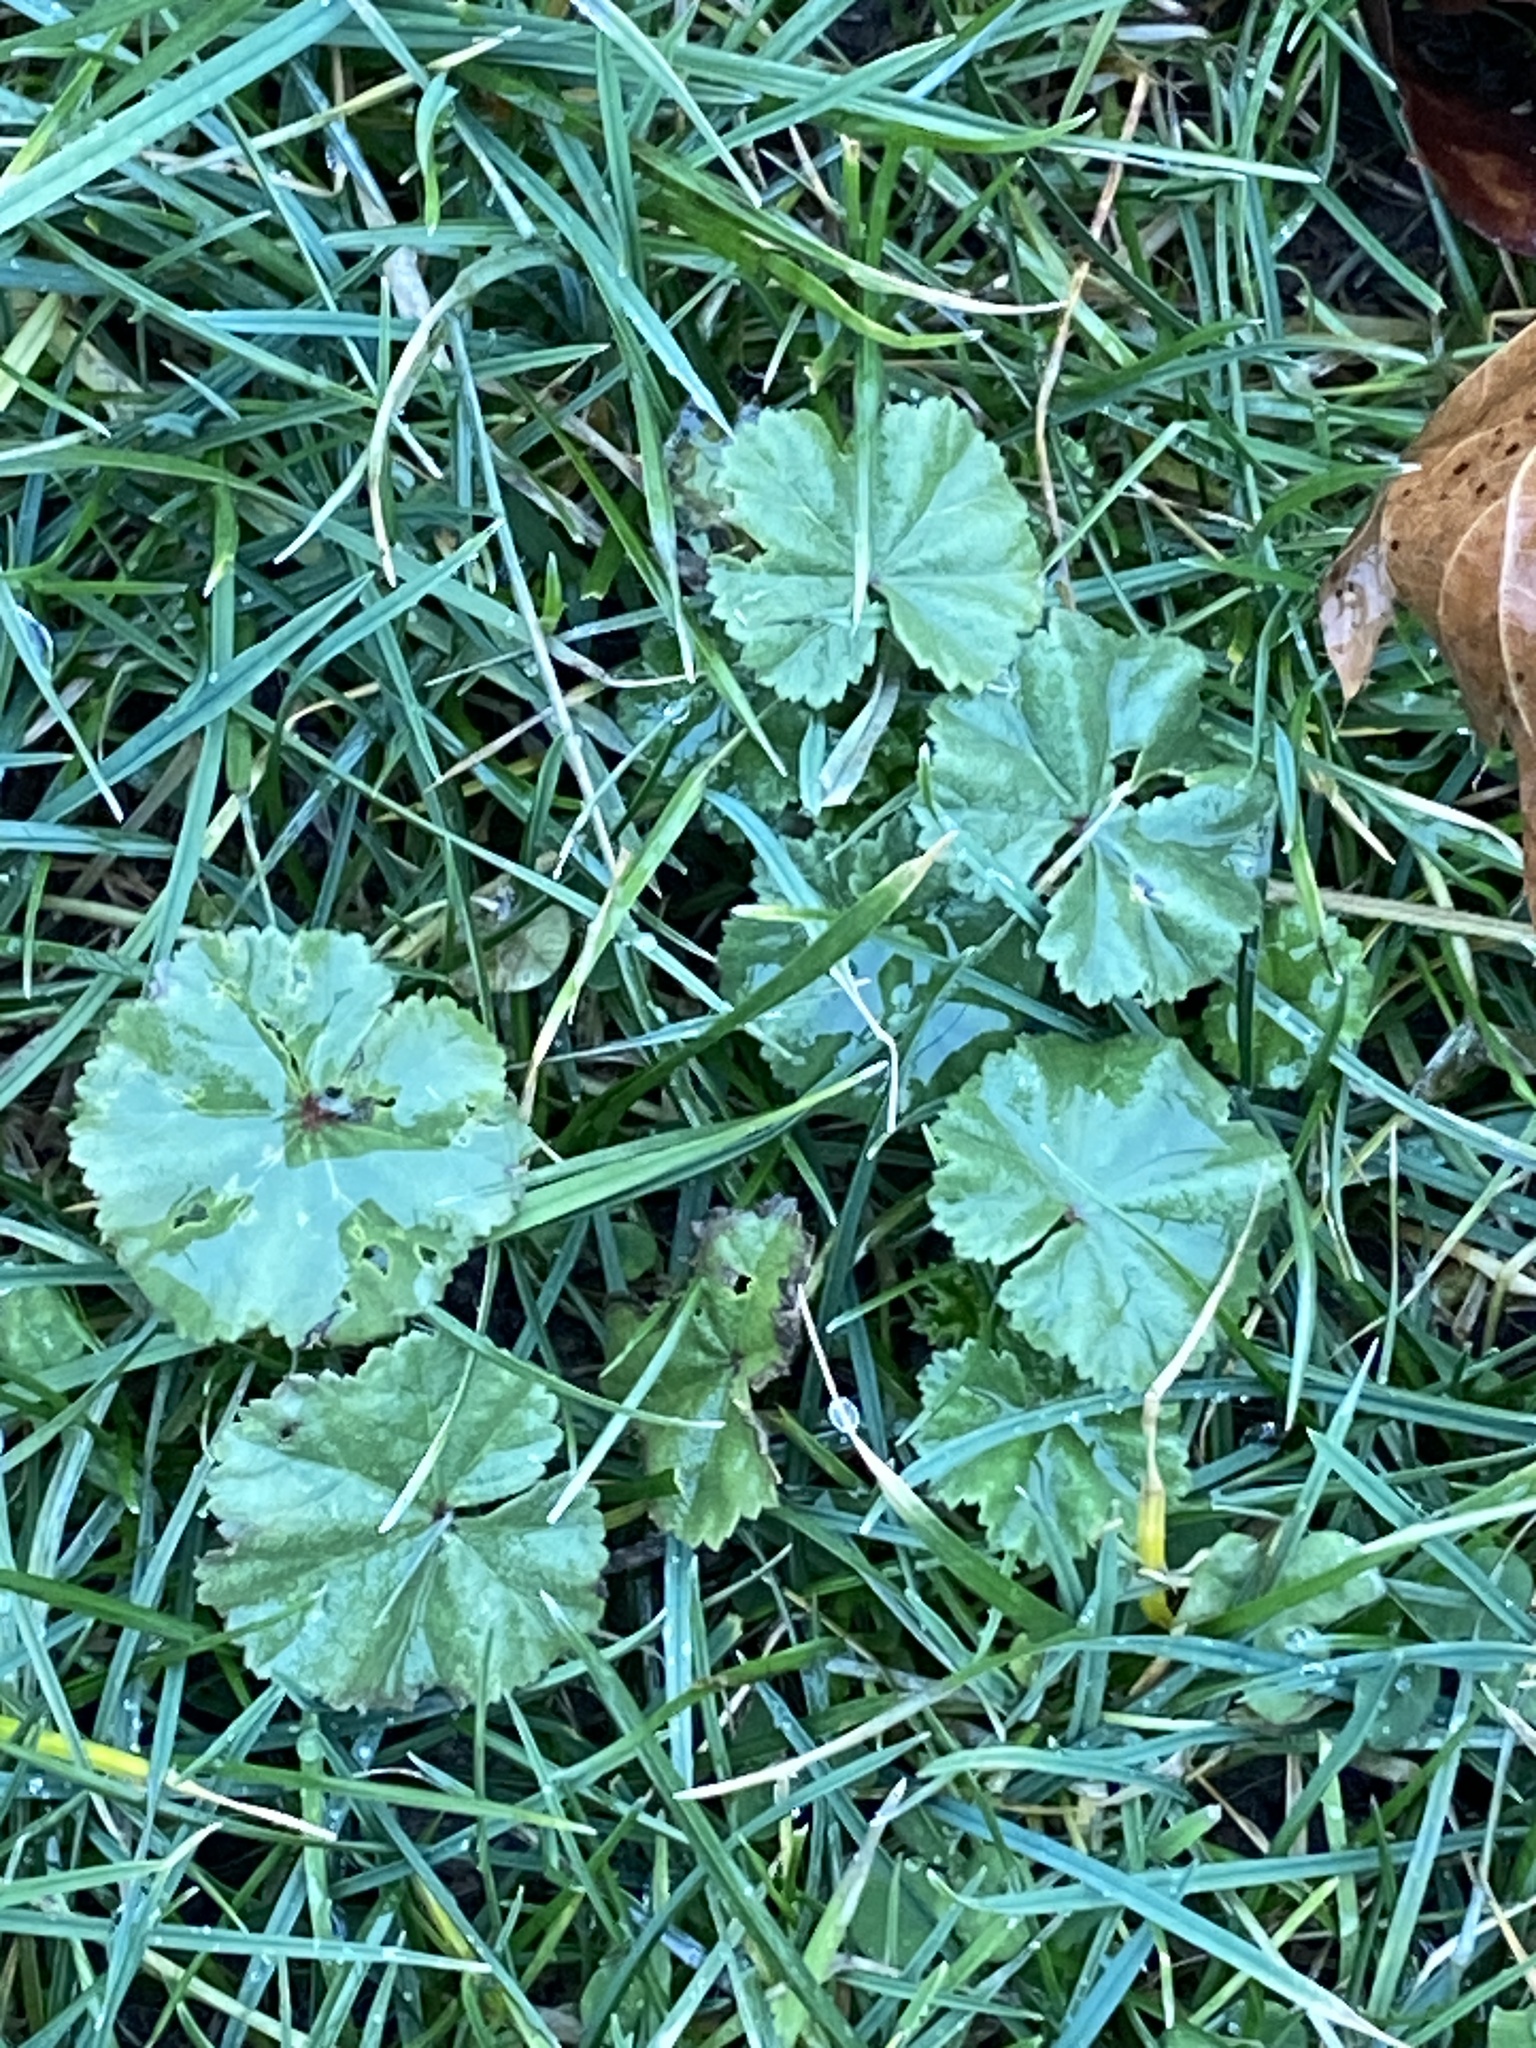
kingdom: Plantae
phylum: Tracheophyta
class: Magnoliopsida
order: Malvales
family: Malvaceae
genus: Malva
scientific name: Malva neglecta
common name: Common mallow
